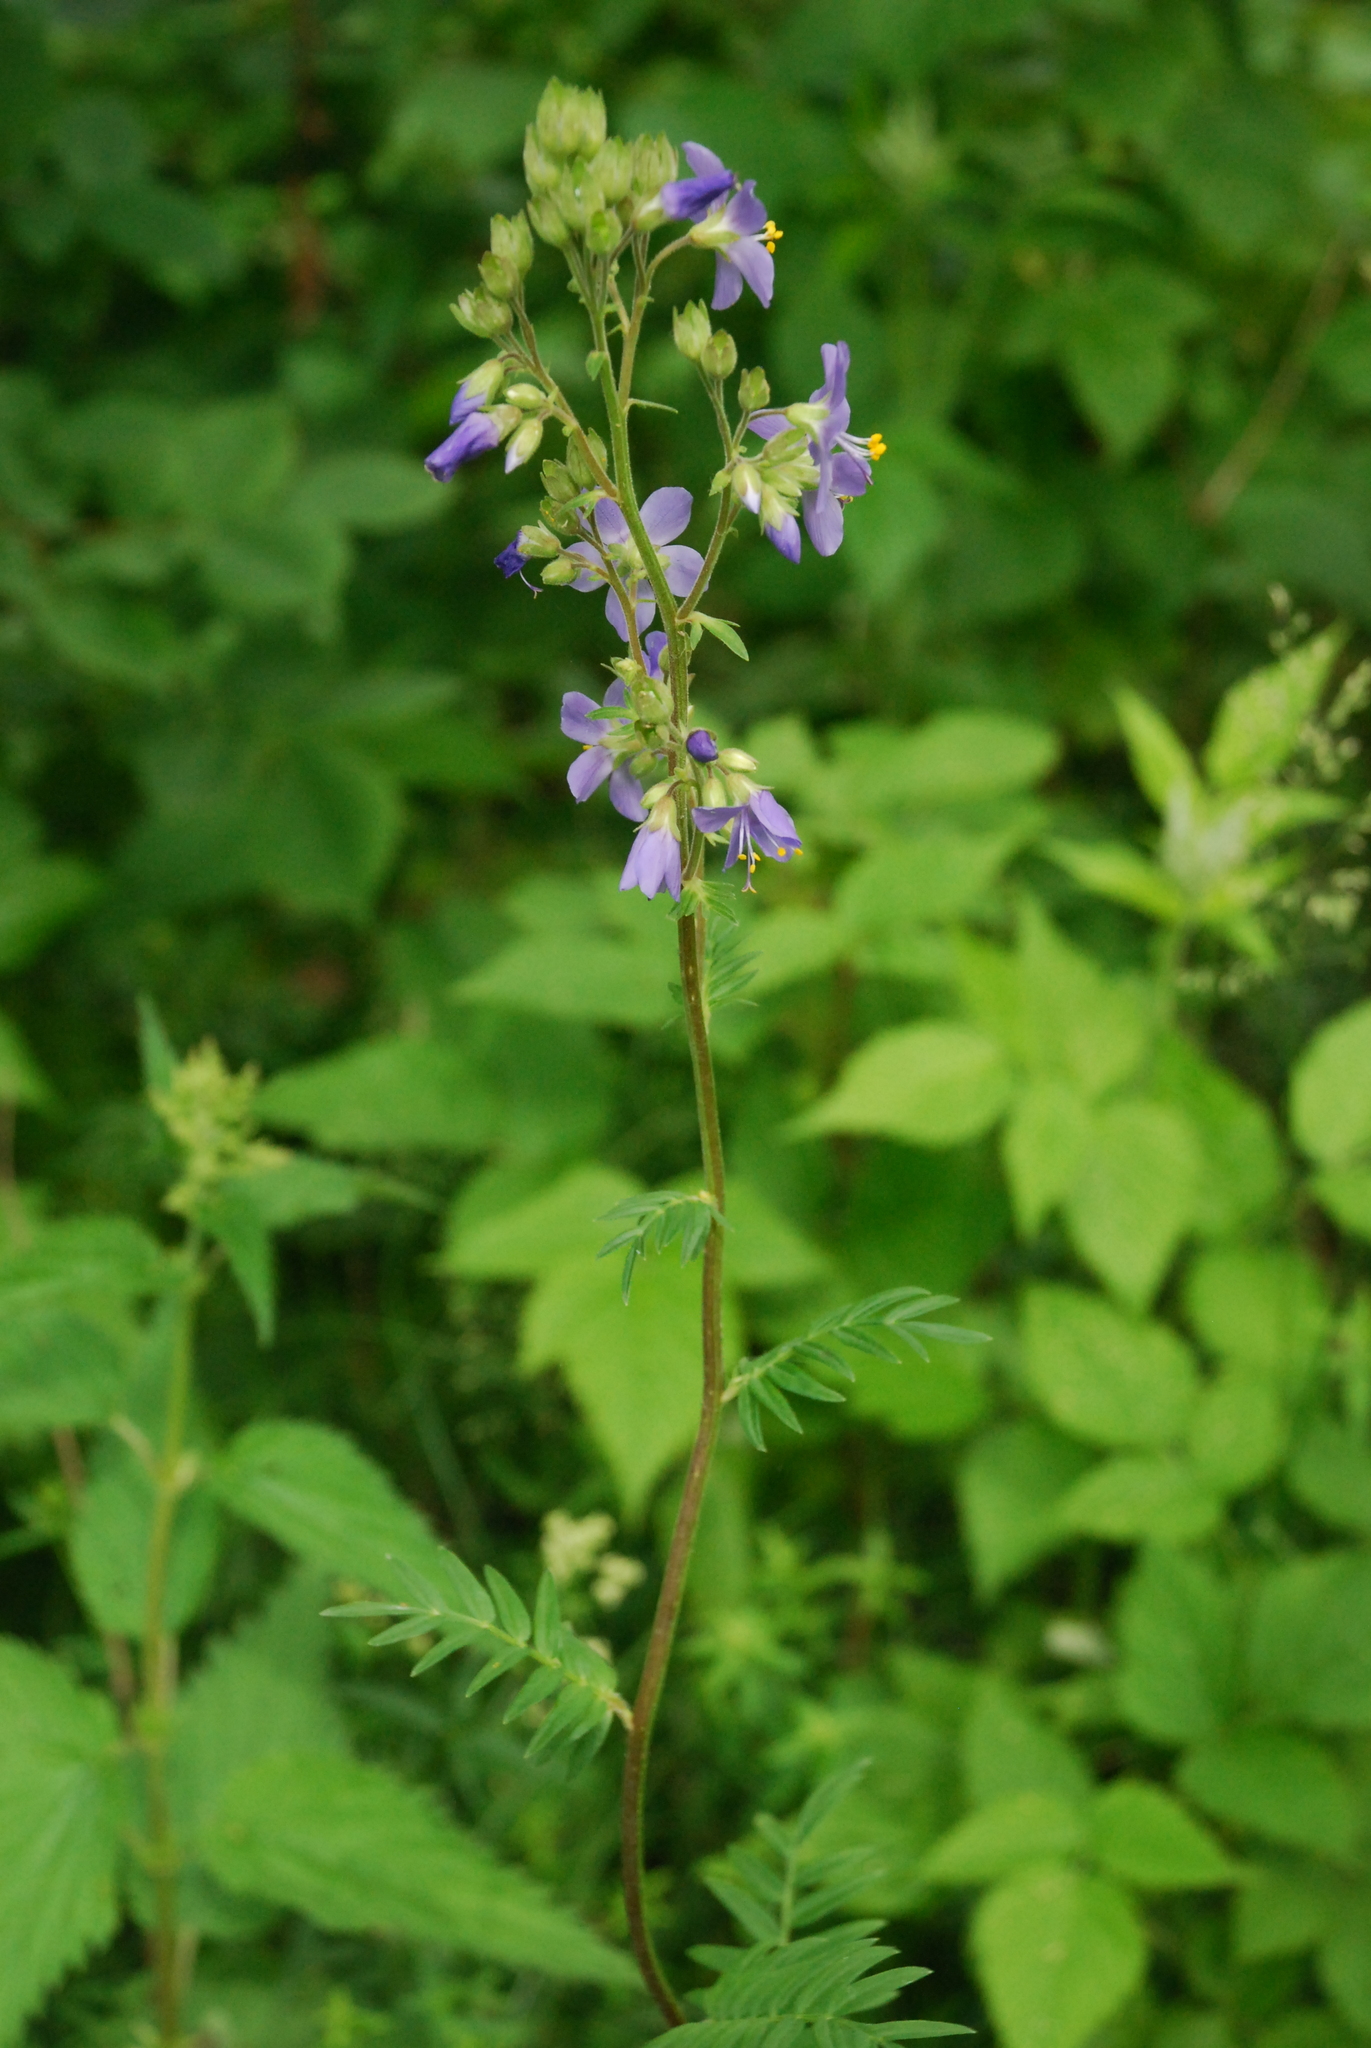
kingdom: Plantae
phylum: Tracheophyta
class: Magnoliopsida
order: Ericales
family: Polemoniaceae
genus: Polemonium
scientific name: Polemonium caeruleum
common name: Jacob's-ladder
